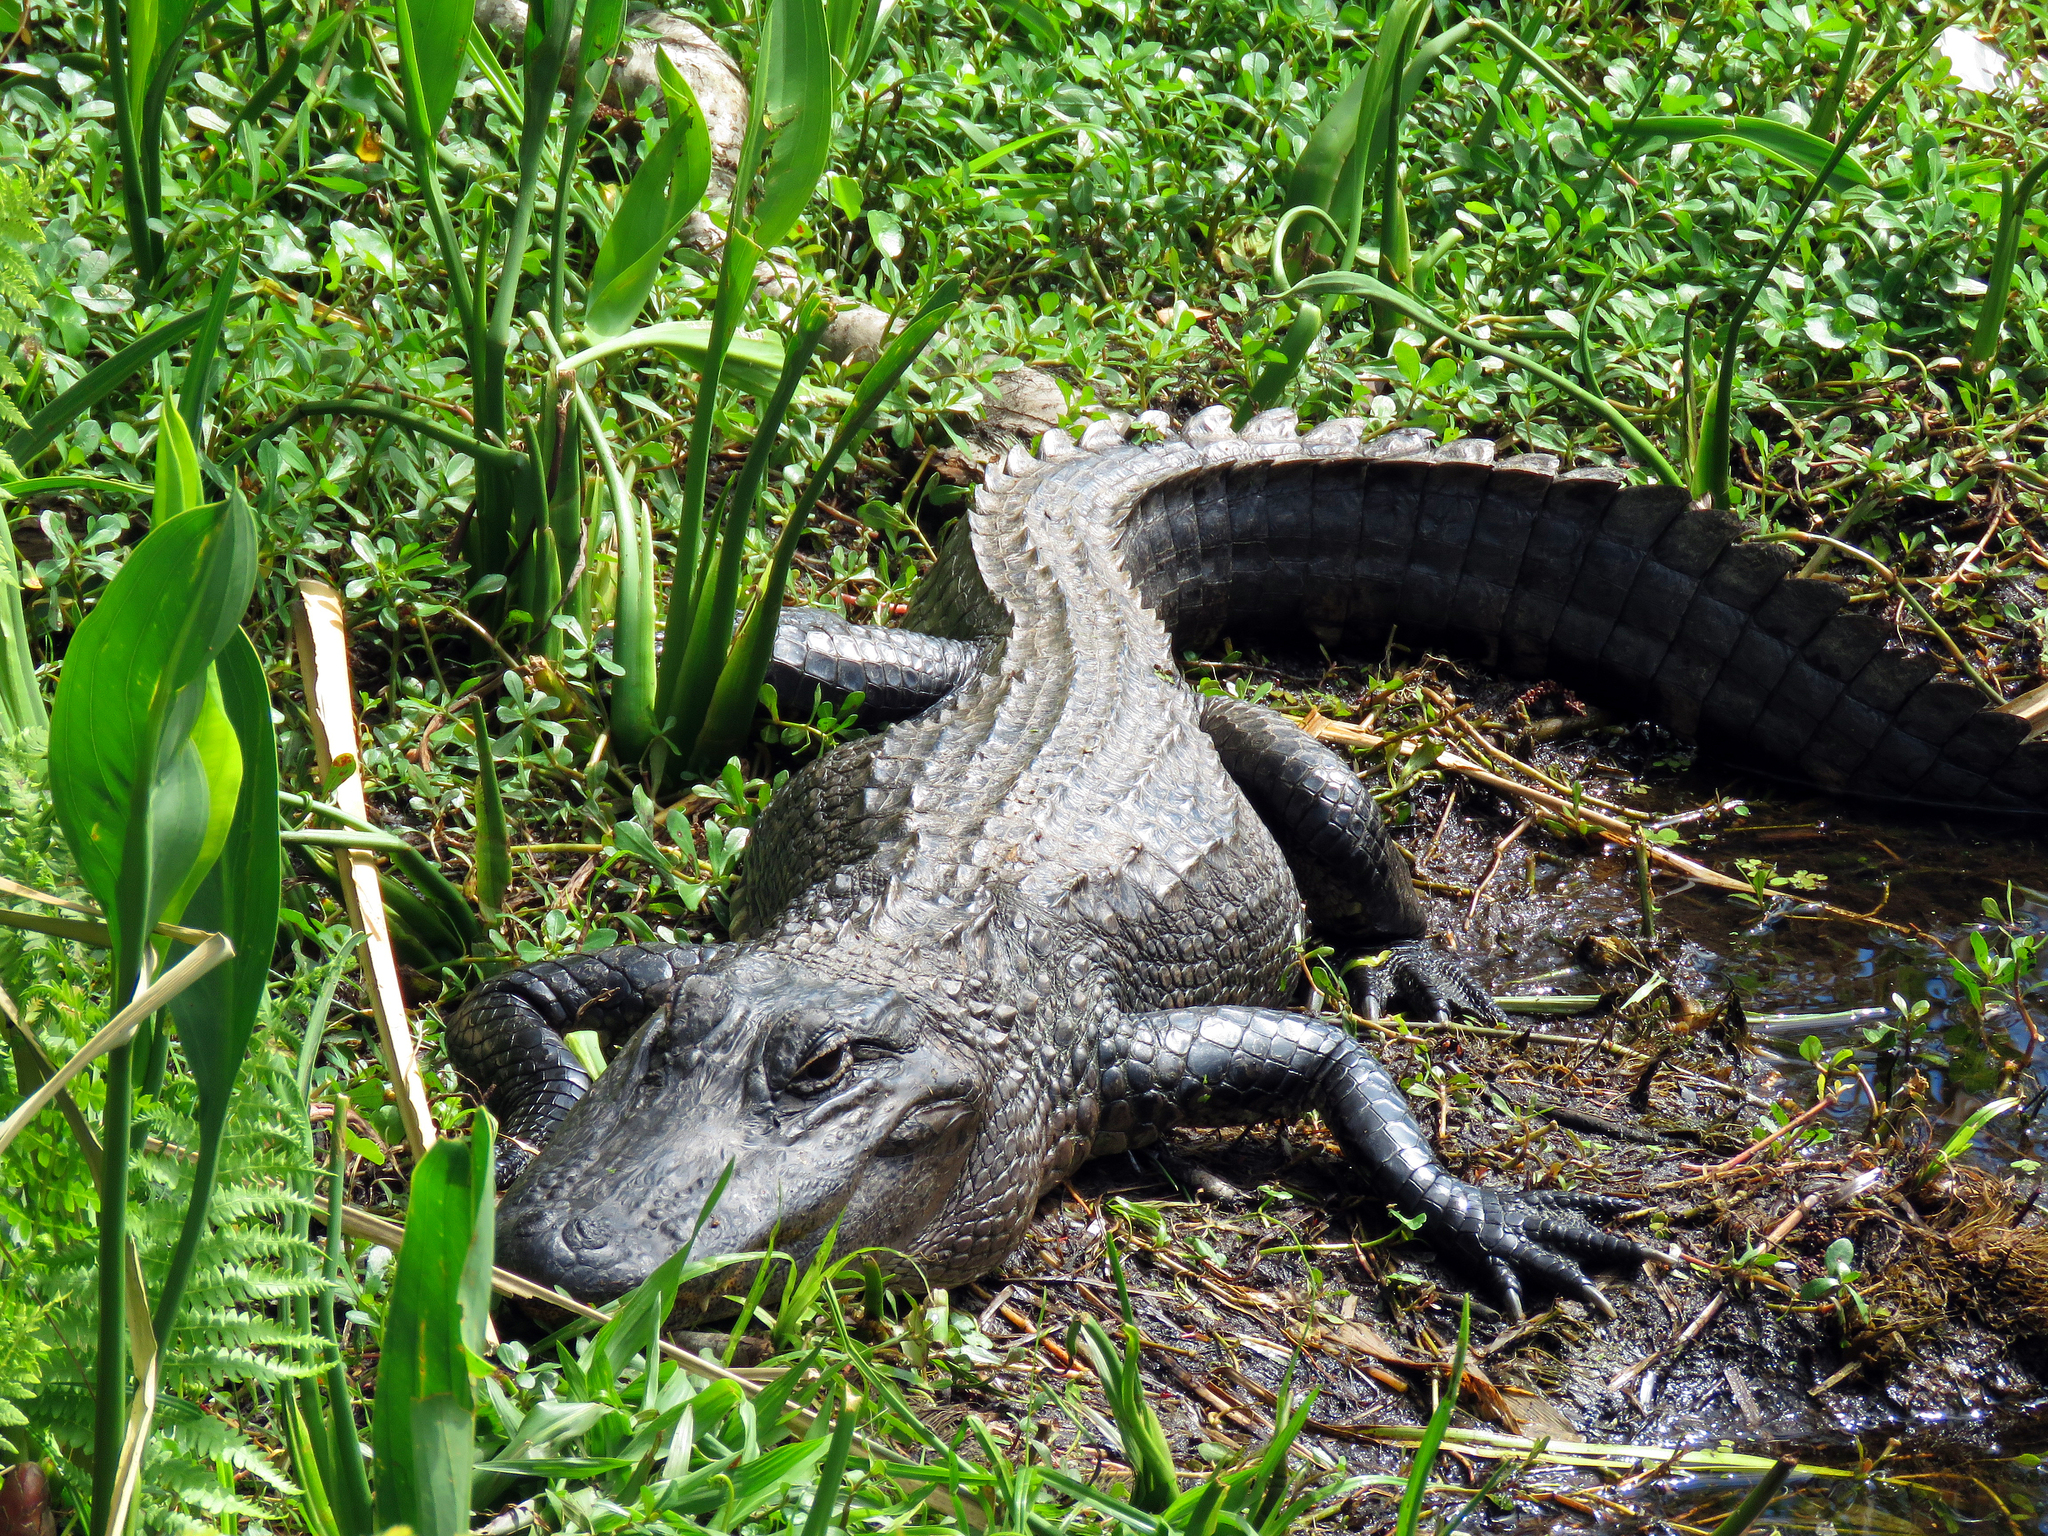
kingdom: Animalia
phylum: Chordata
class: Crocodylia
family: Alligatoridae
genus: Alligator
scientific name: Alligator mississippiensis
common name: American alligator
